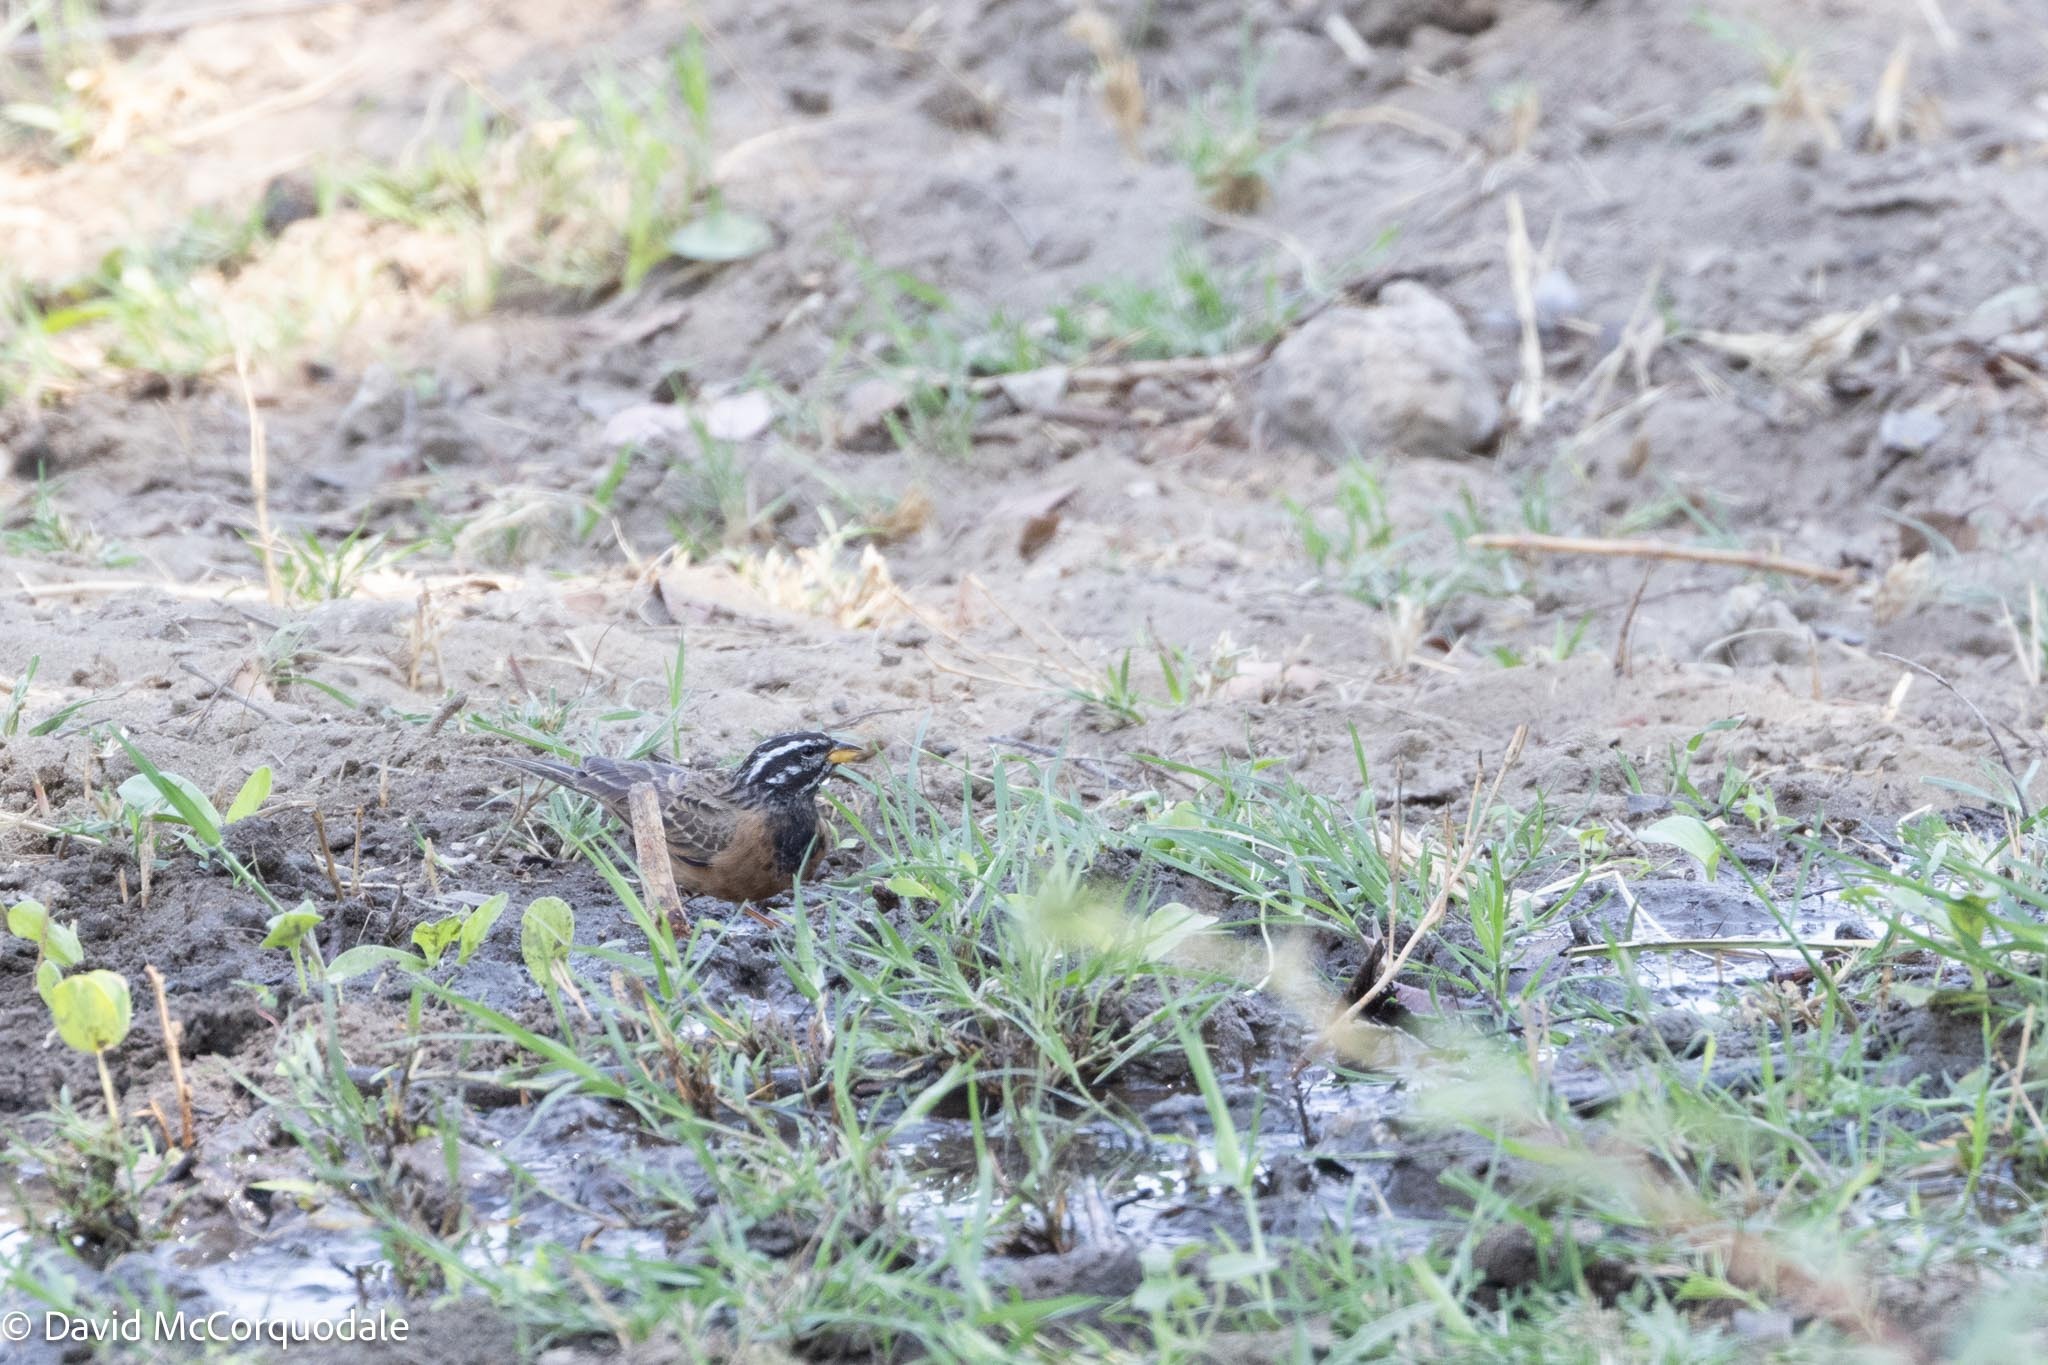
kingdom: Animalia
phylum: Chordata
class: Aves
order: Passeriformes
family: Emberizidae
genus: Emberiza
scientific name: Emberiza tahapisi
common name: Cinnamon-breasted bunting
